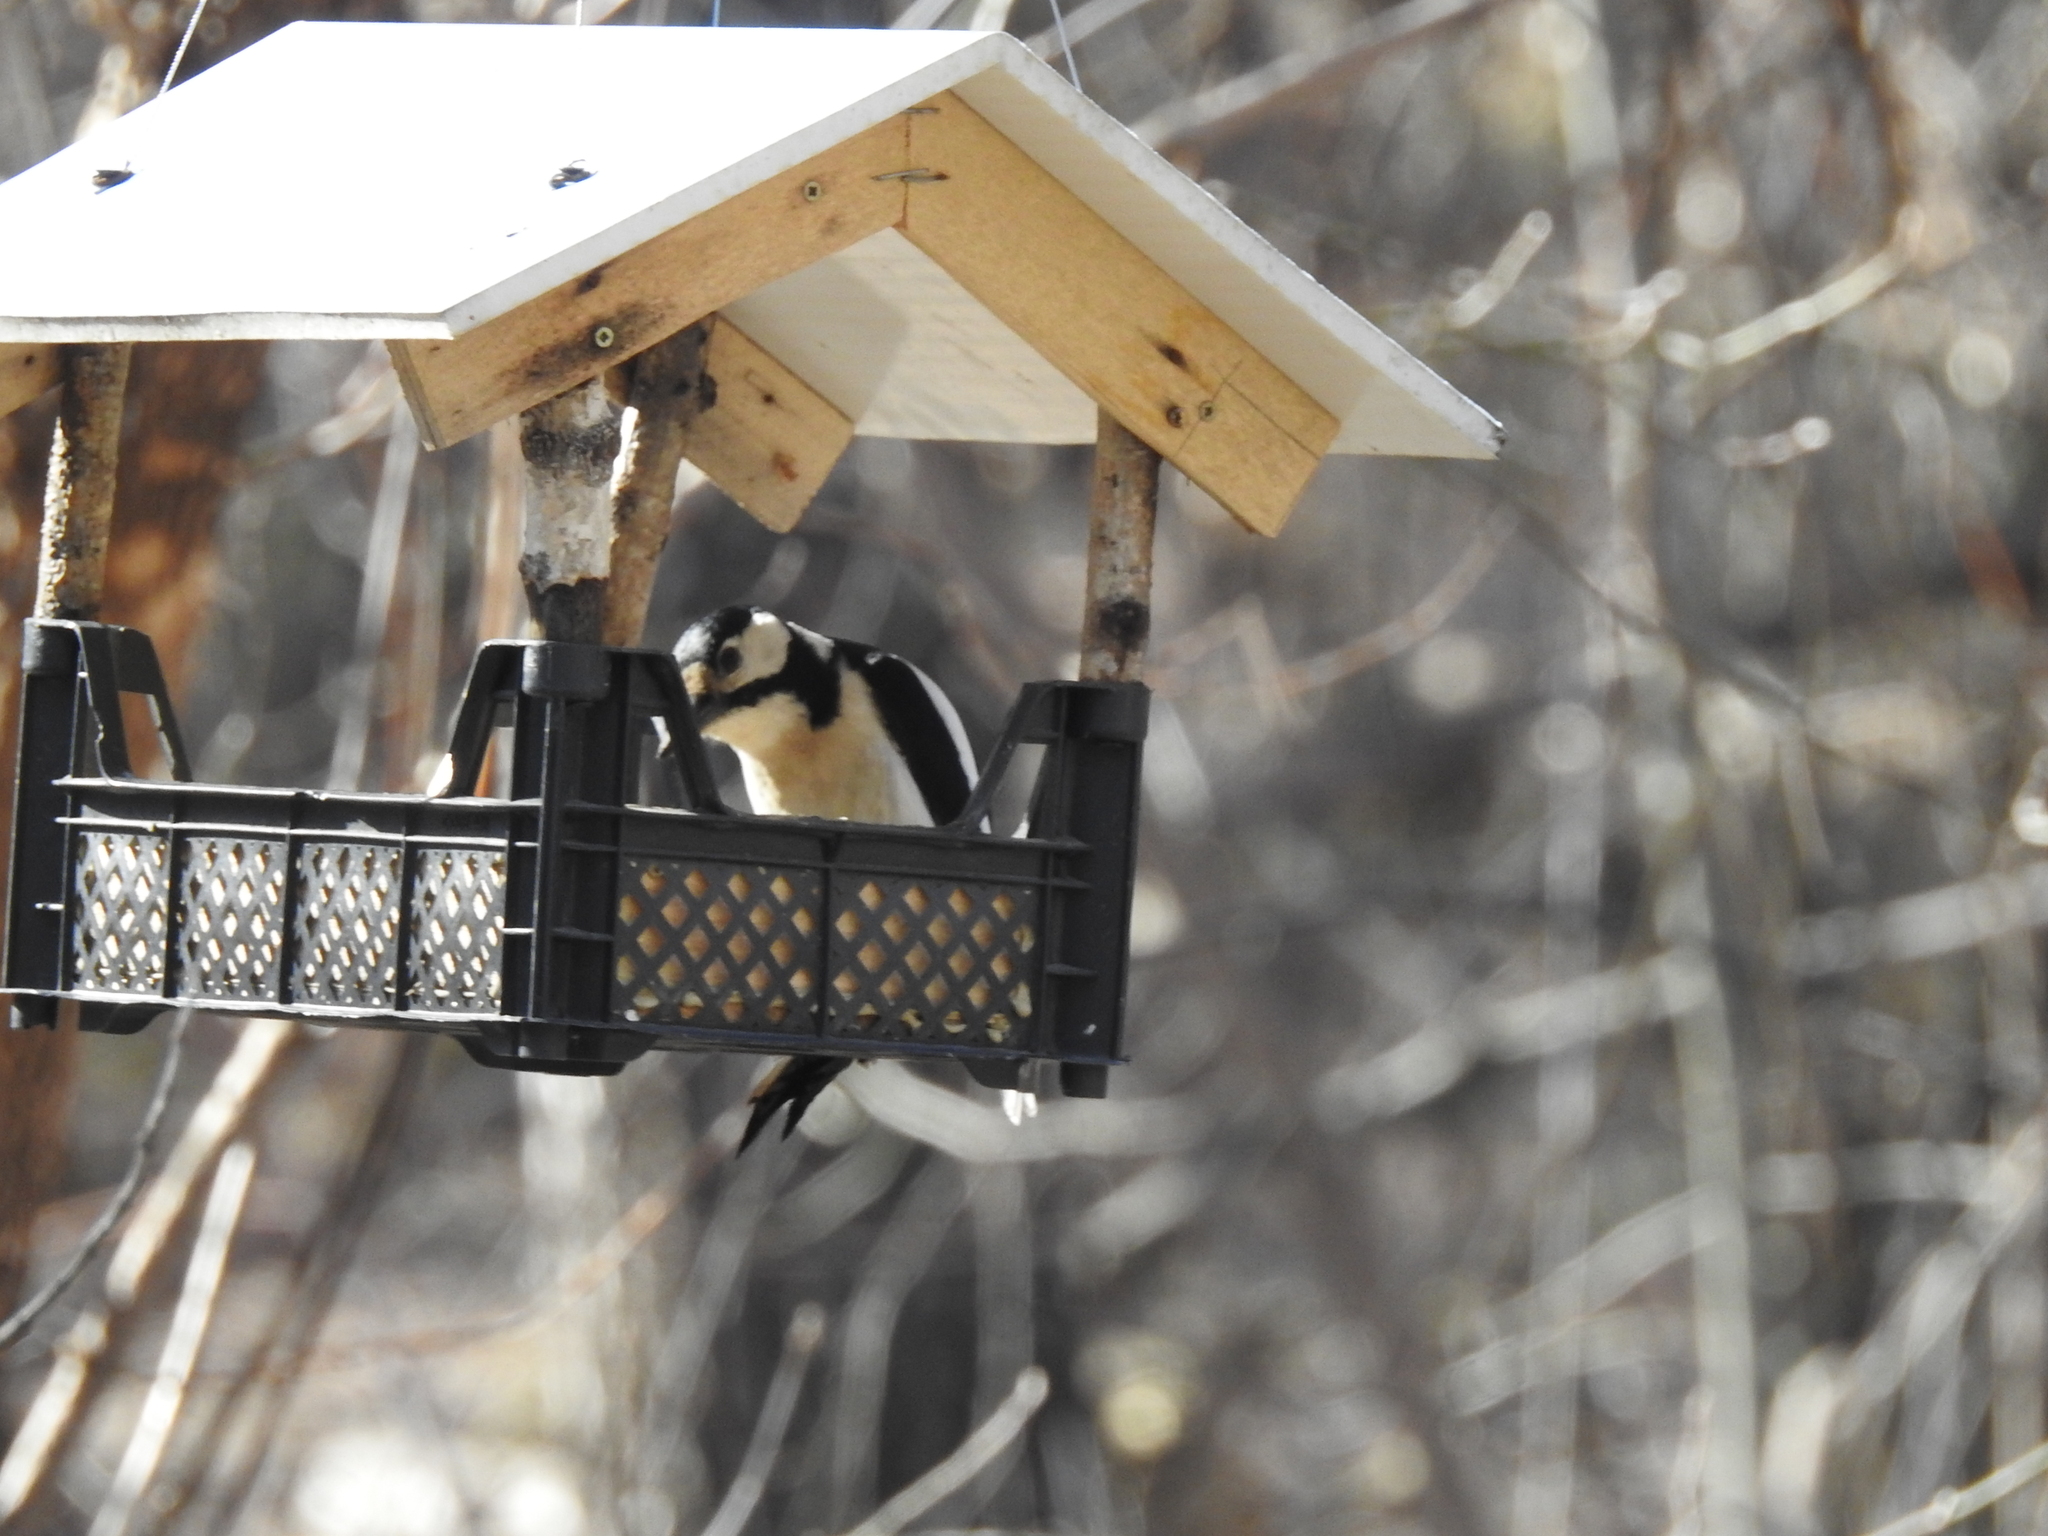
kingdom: Animalia
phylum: Chordata
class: Aves
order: Piciformes
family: Picidae
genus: Dendrocopos
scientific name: Dendrocopos major
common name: Great spotted woodpecker
